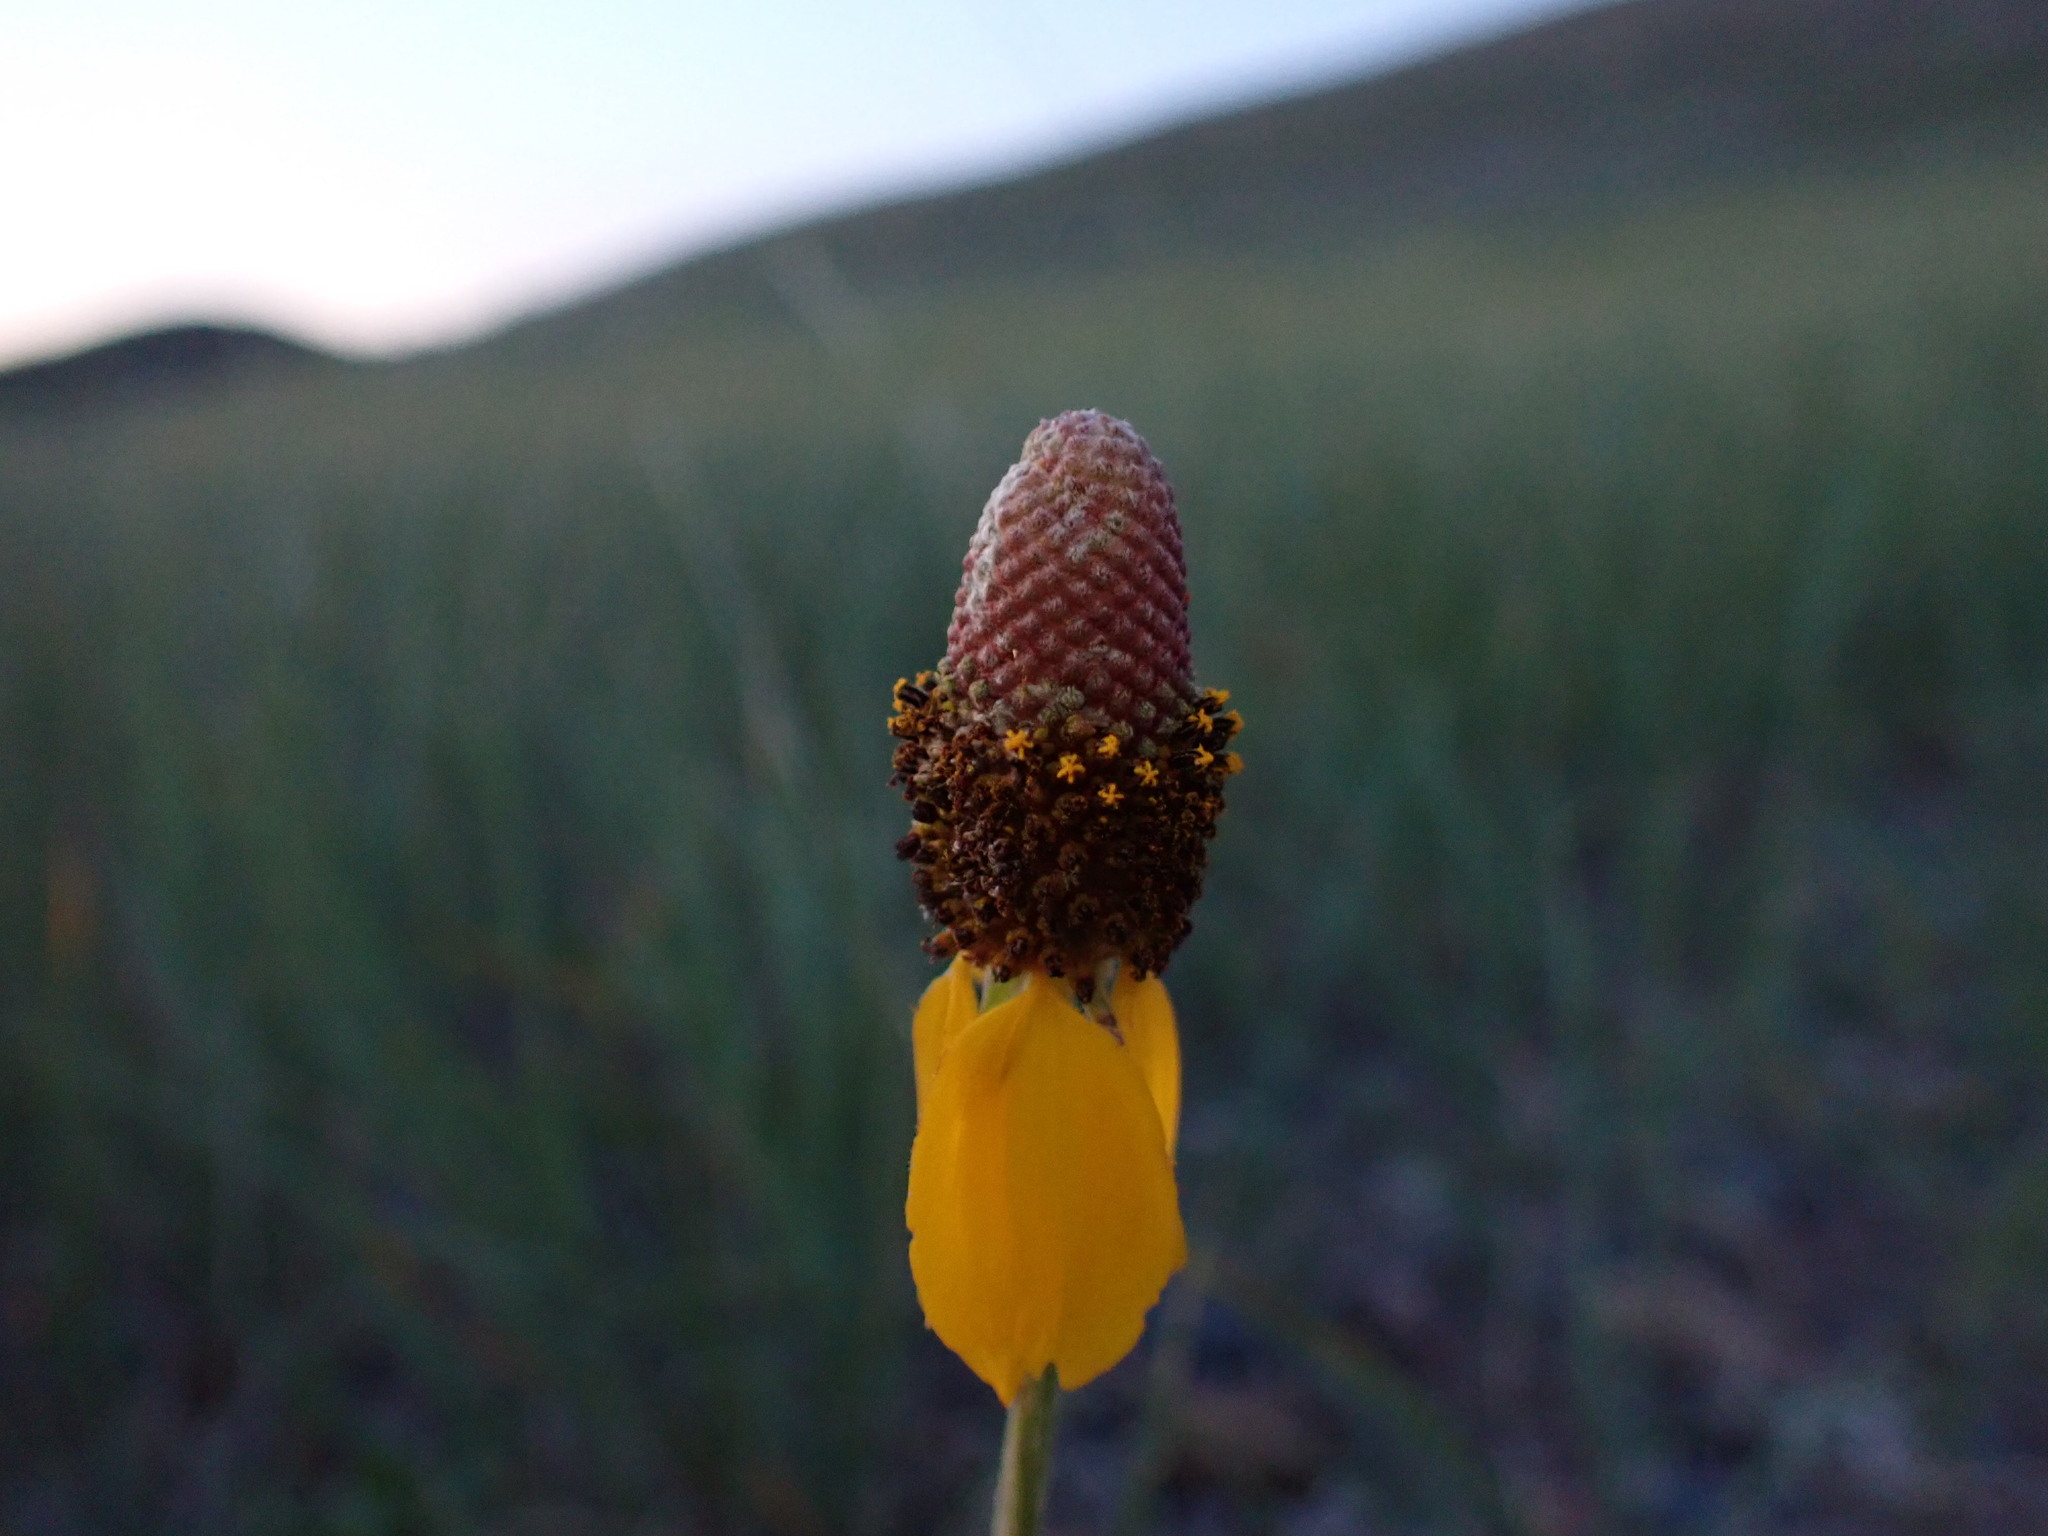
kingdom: Plantae
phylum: Tracheophyta
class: Magnoliopsida
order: Asterales
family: Asteraceae
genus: Ratibida
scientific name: Ratibida columnifera
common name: Prairie coneflower
